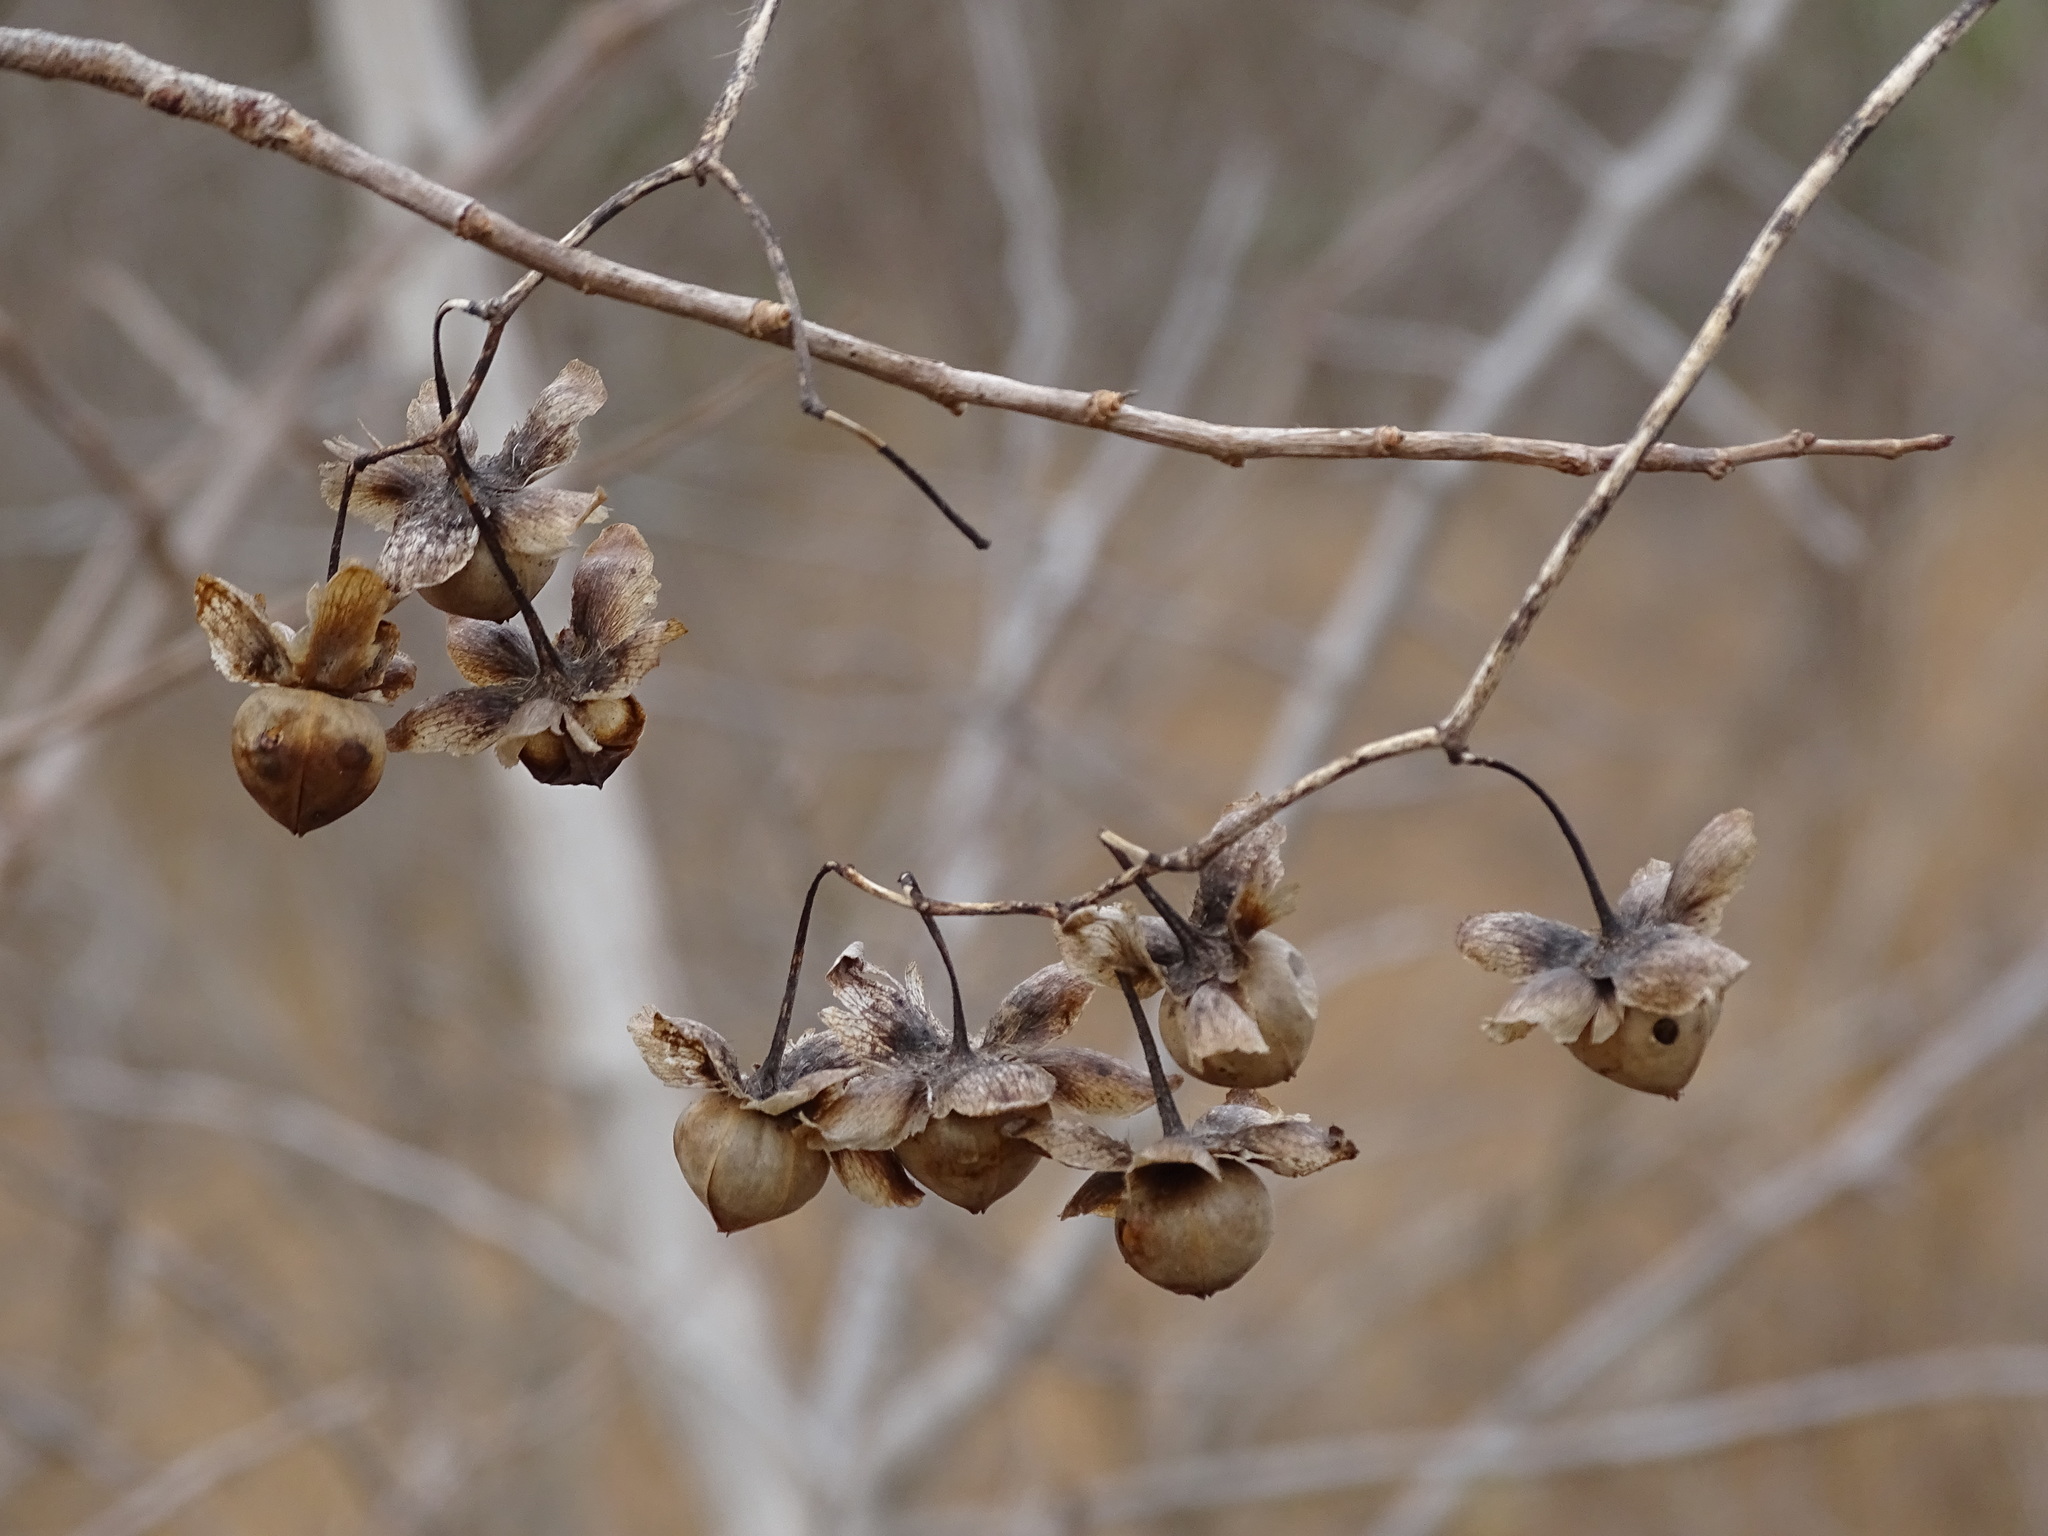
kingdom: Plantae
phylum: Tracheophyta
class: Magnoliopsida
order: Solanales
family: Convolvulaceae
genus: Distimake
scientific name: Distimake aegyptius
